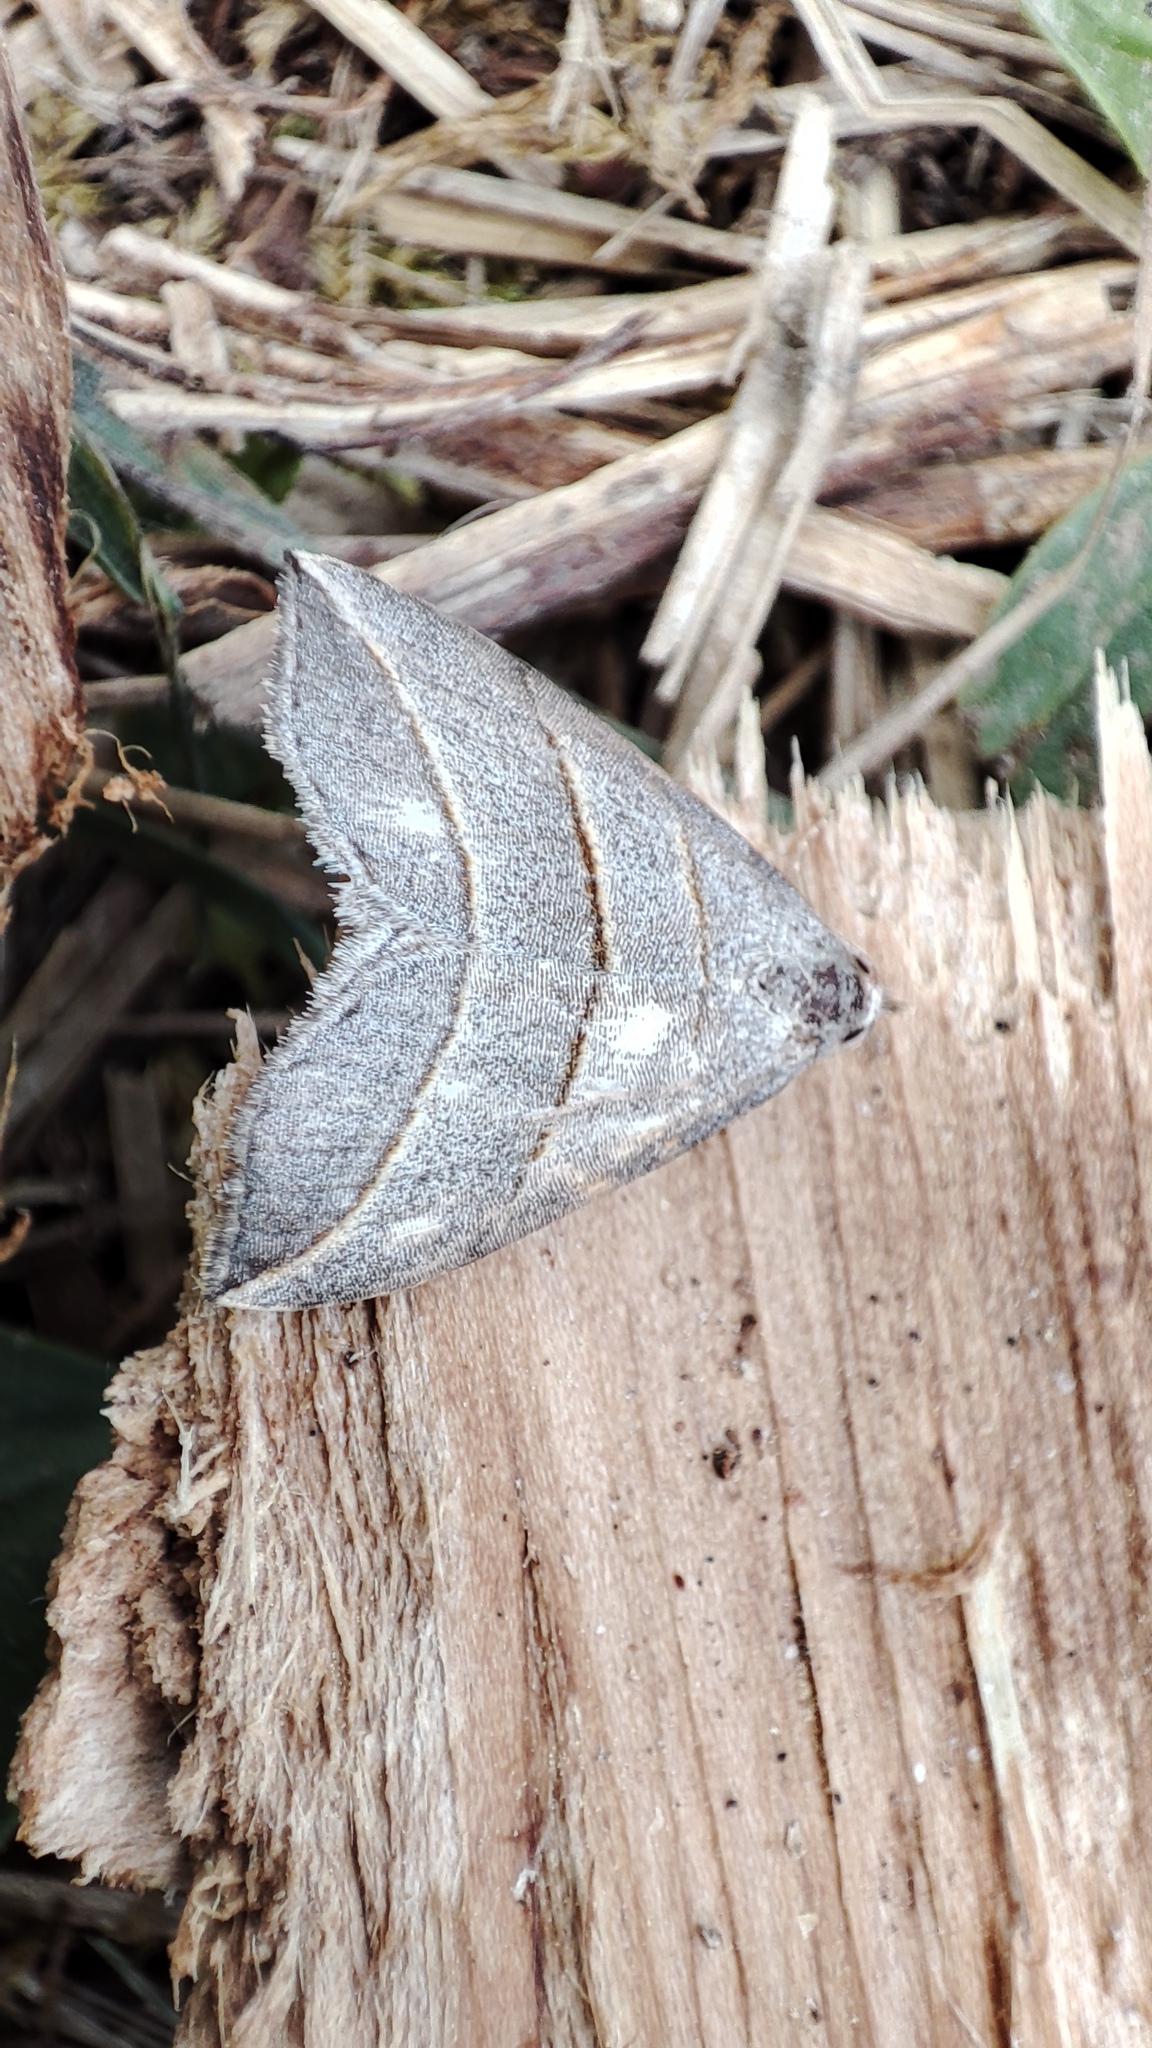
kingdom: Animalia
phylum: Arthropoda
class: Insecta
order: Lepidoptera
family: Erebidae
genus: Colobochyla
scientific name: Colobochyla salicalis
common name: Lesser belle
